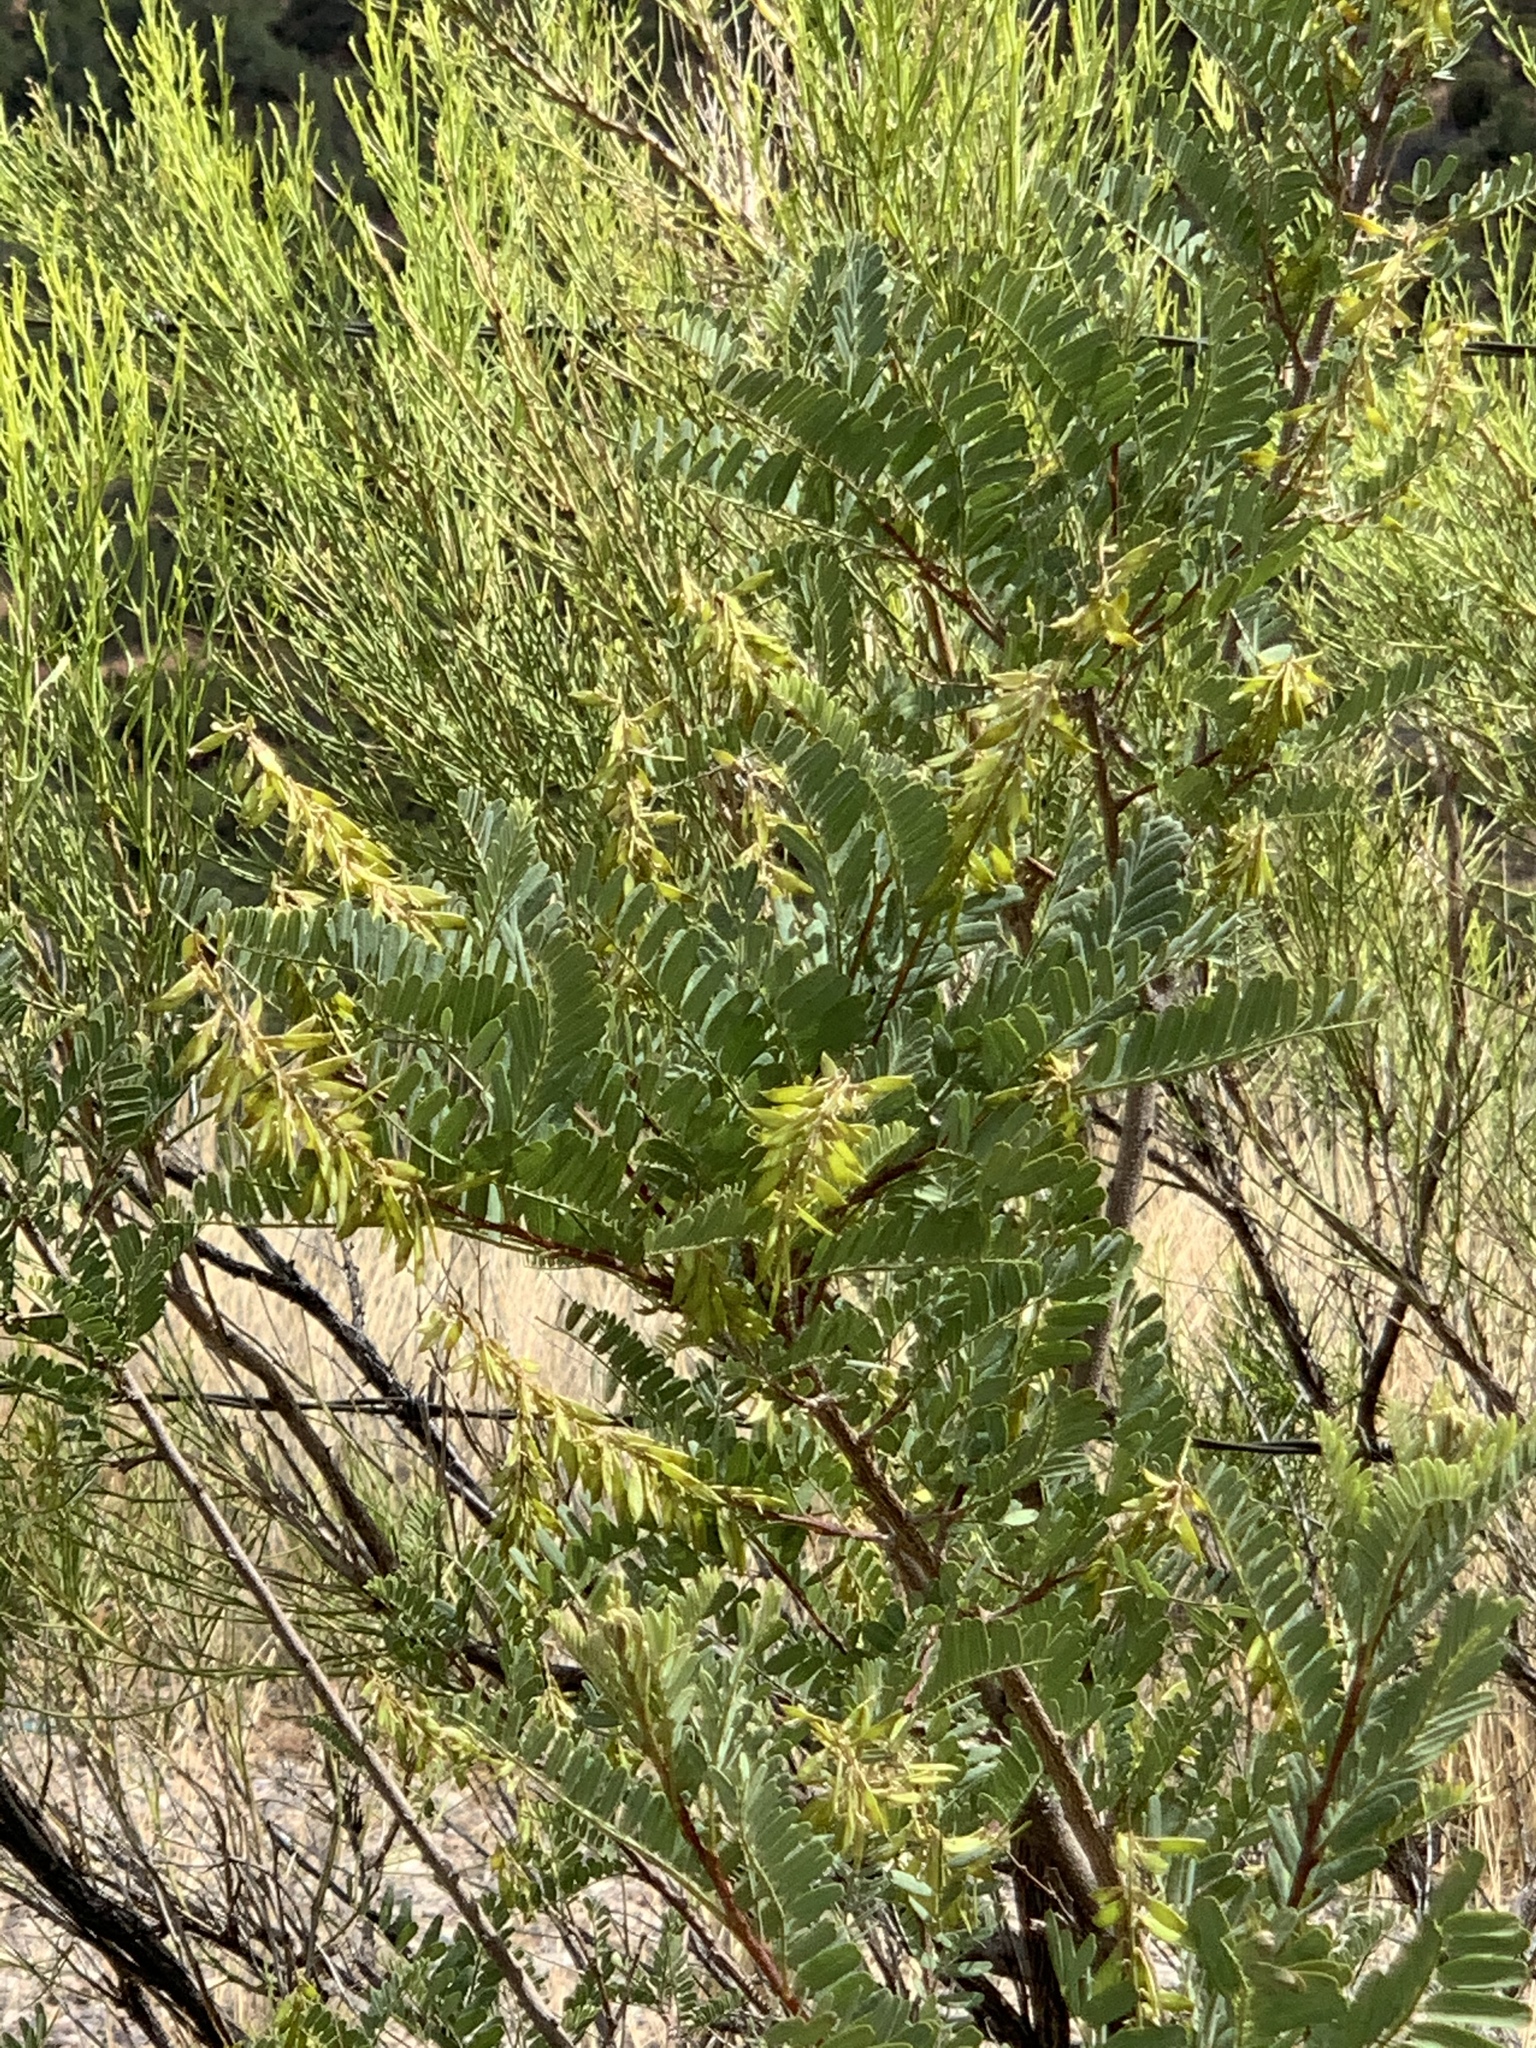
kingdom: Plantae
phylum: Tracheophyta
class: Magnoliopsida
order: Fabales
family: Fabaceae
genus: Eysenhardtia
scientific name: Eysenhardtia orthocarpa
